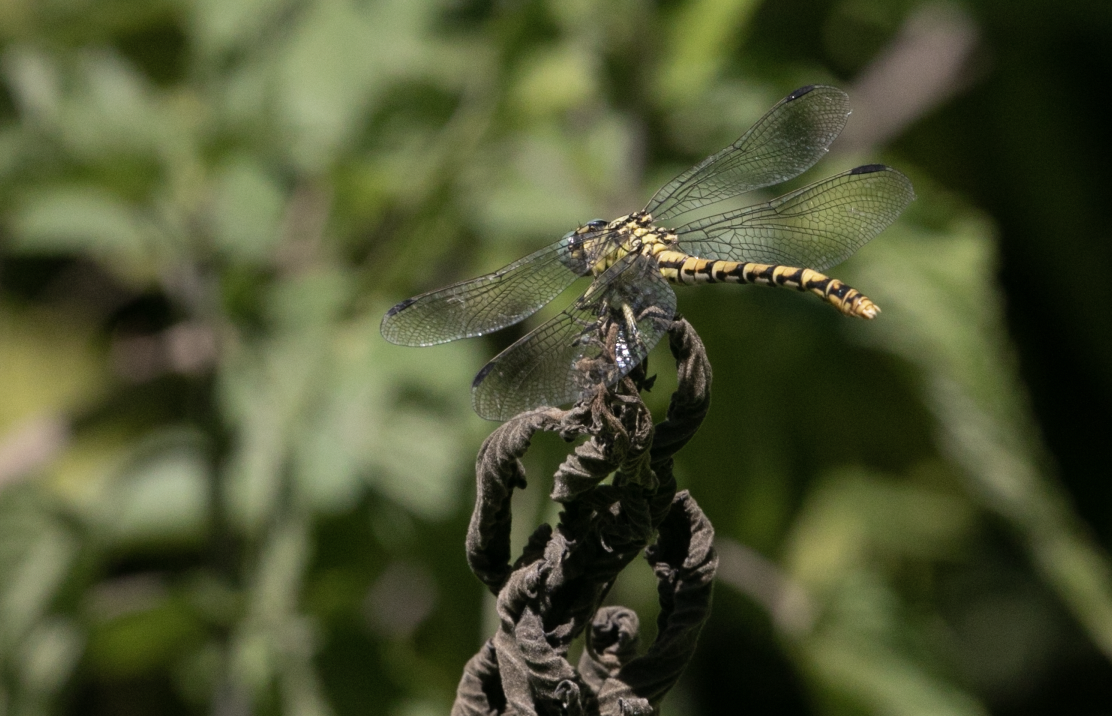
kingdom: Animalia
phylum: Arthropoda
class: Insecta
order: Odonata
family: Gomphidae
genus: Onychogomphus
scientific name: Onychogomphus forcipatus
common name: Small pincertail
